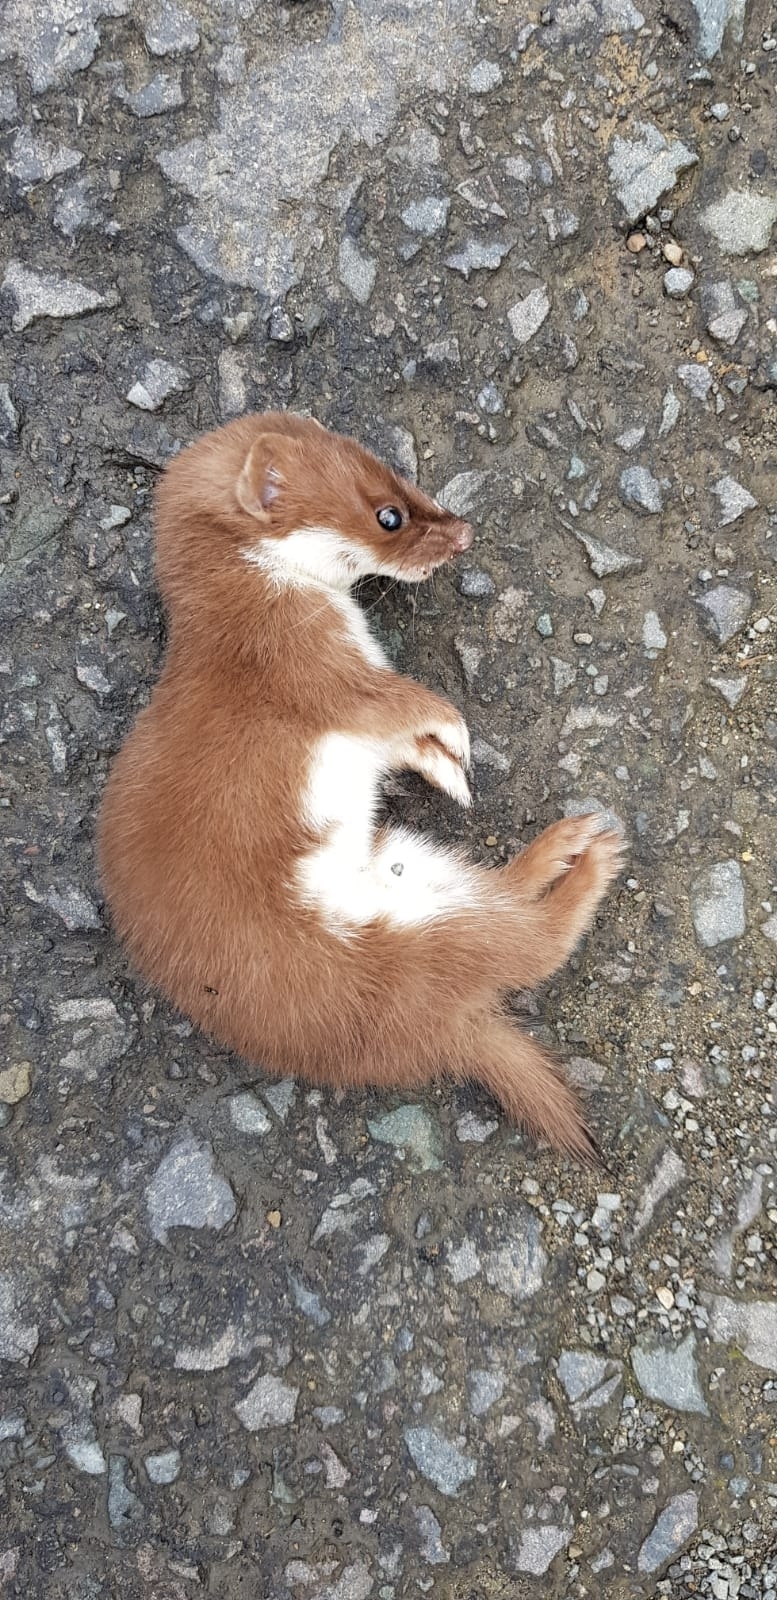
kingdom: Animalia
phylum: Chordata
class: Mammalia
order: Carnivora
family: Mustelidae
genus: Mustela
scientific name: Mustela nivalis
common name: Least weasel
